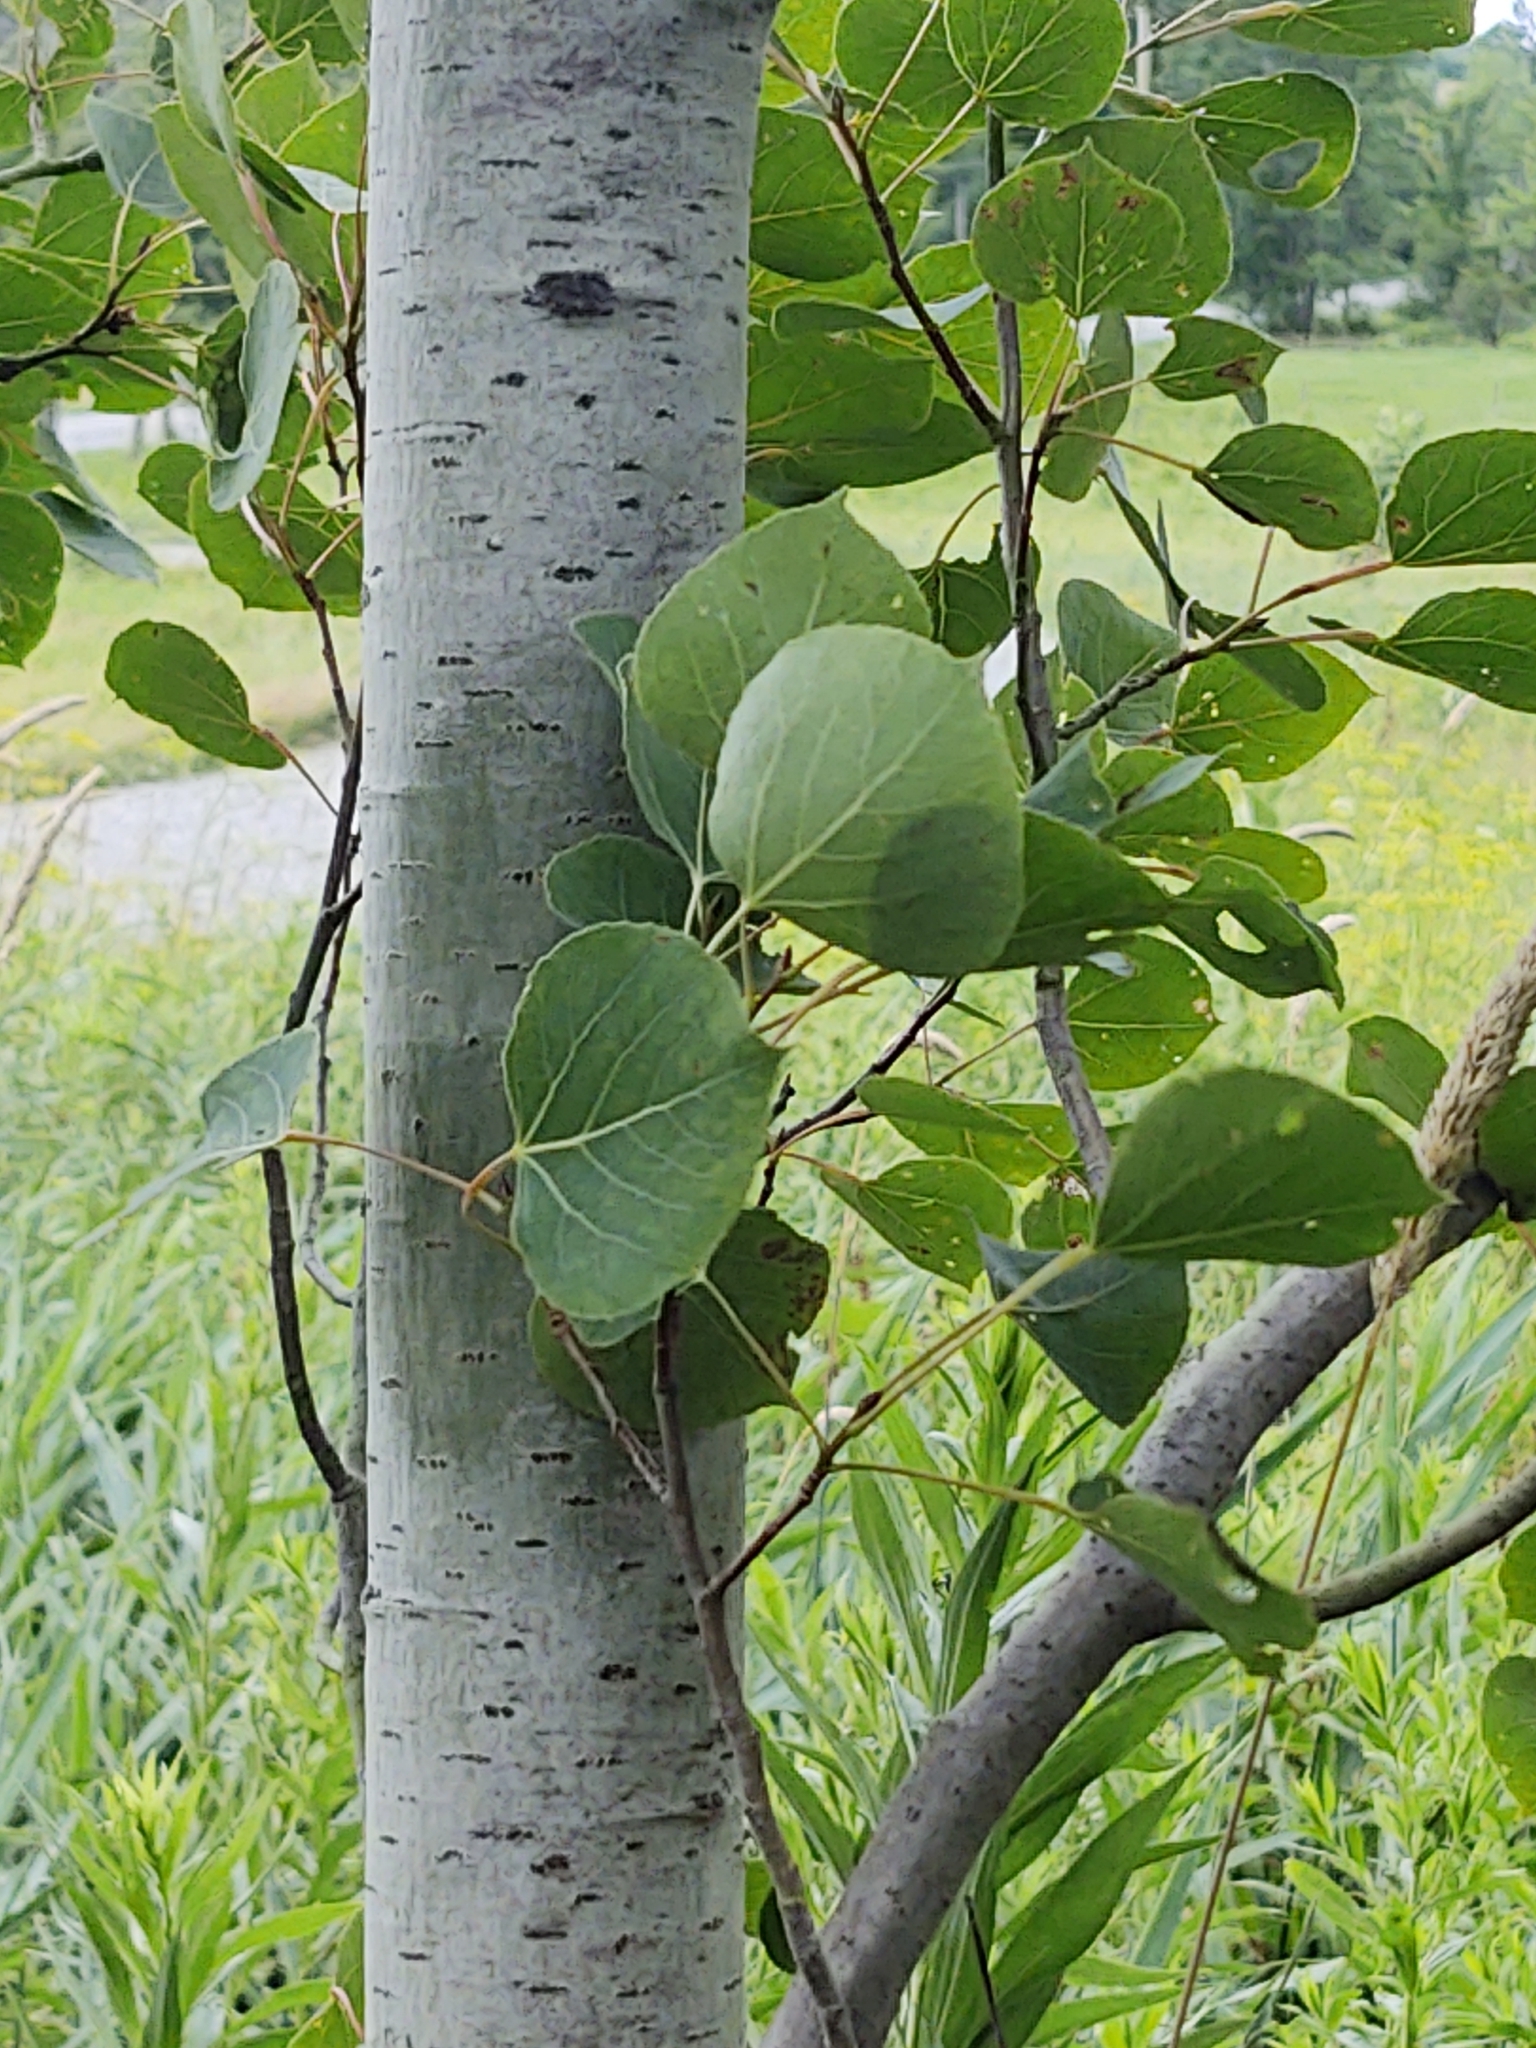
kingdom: Plantae
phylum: Tracheophyta
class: Magnoliopsida
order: Malpighiales
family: Salicaceae
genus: Populus
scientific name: Populus tremuloides
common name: Quaking aspen
